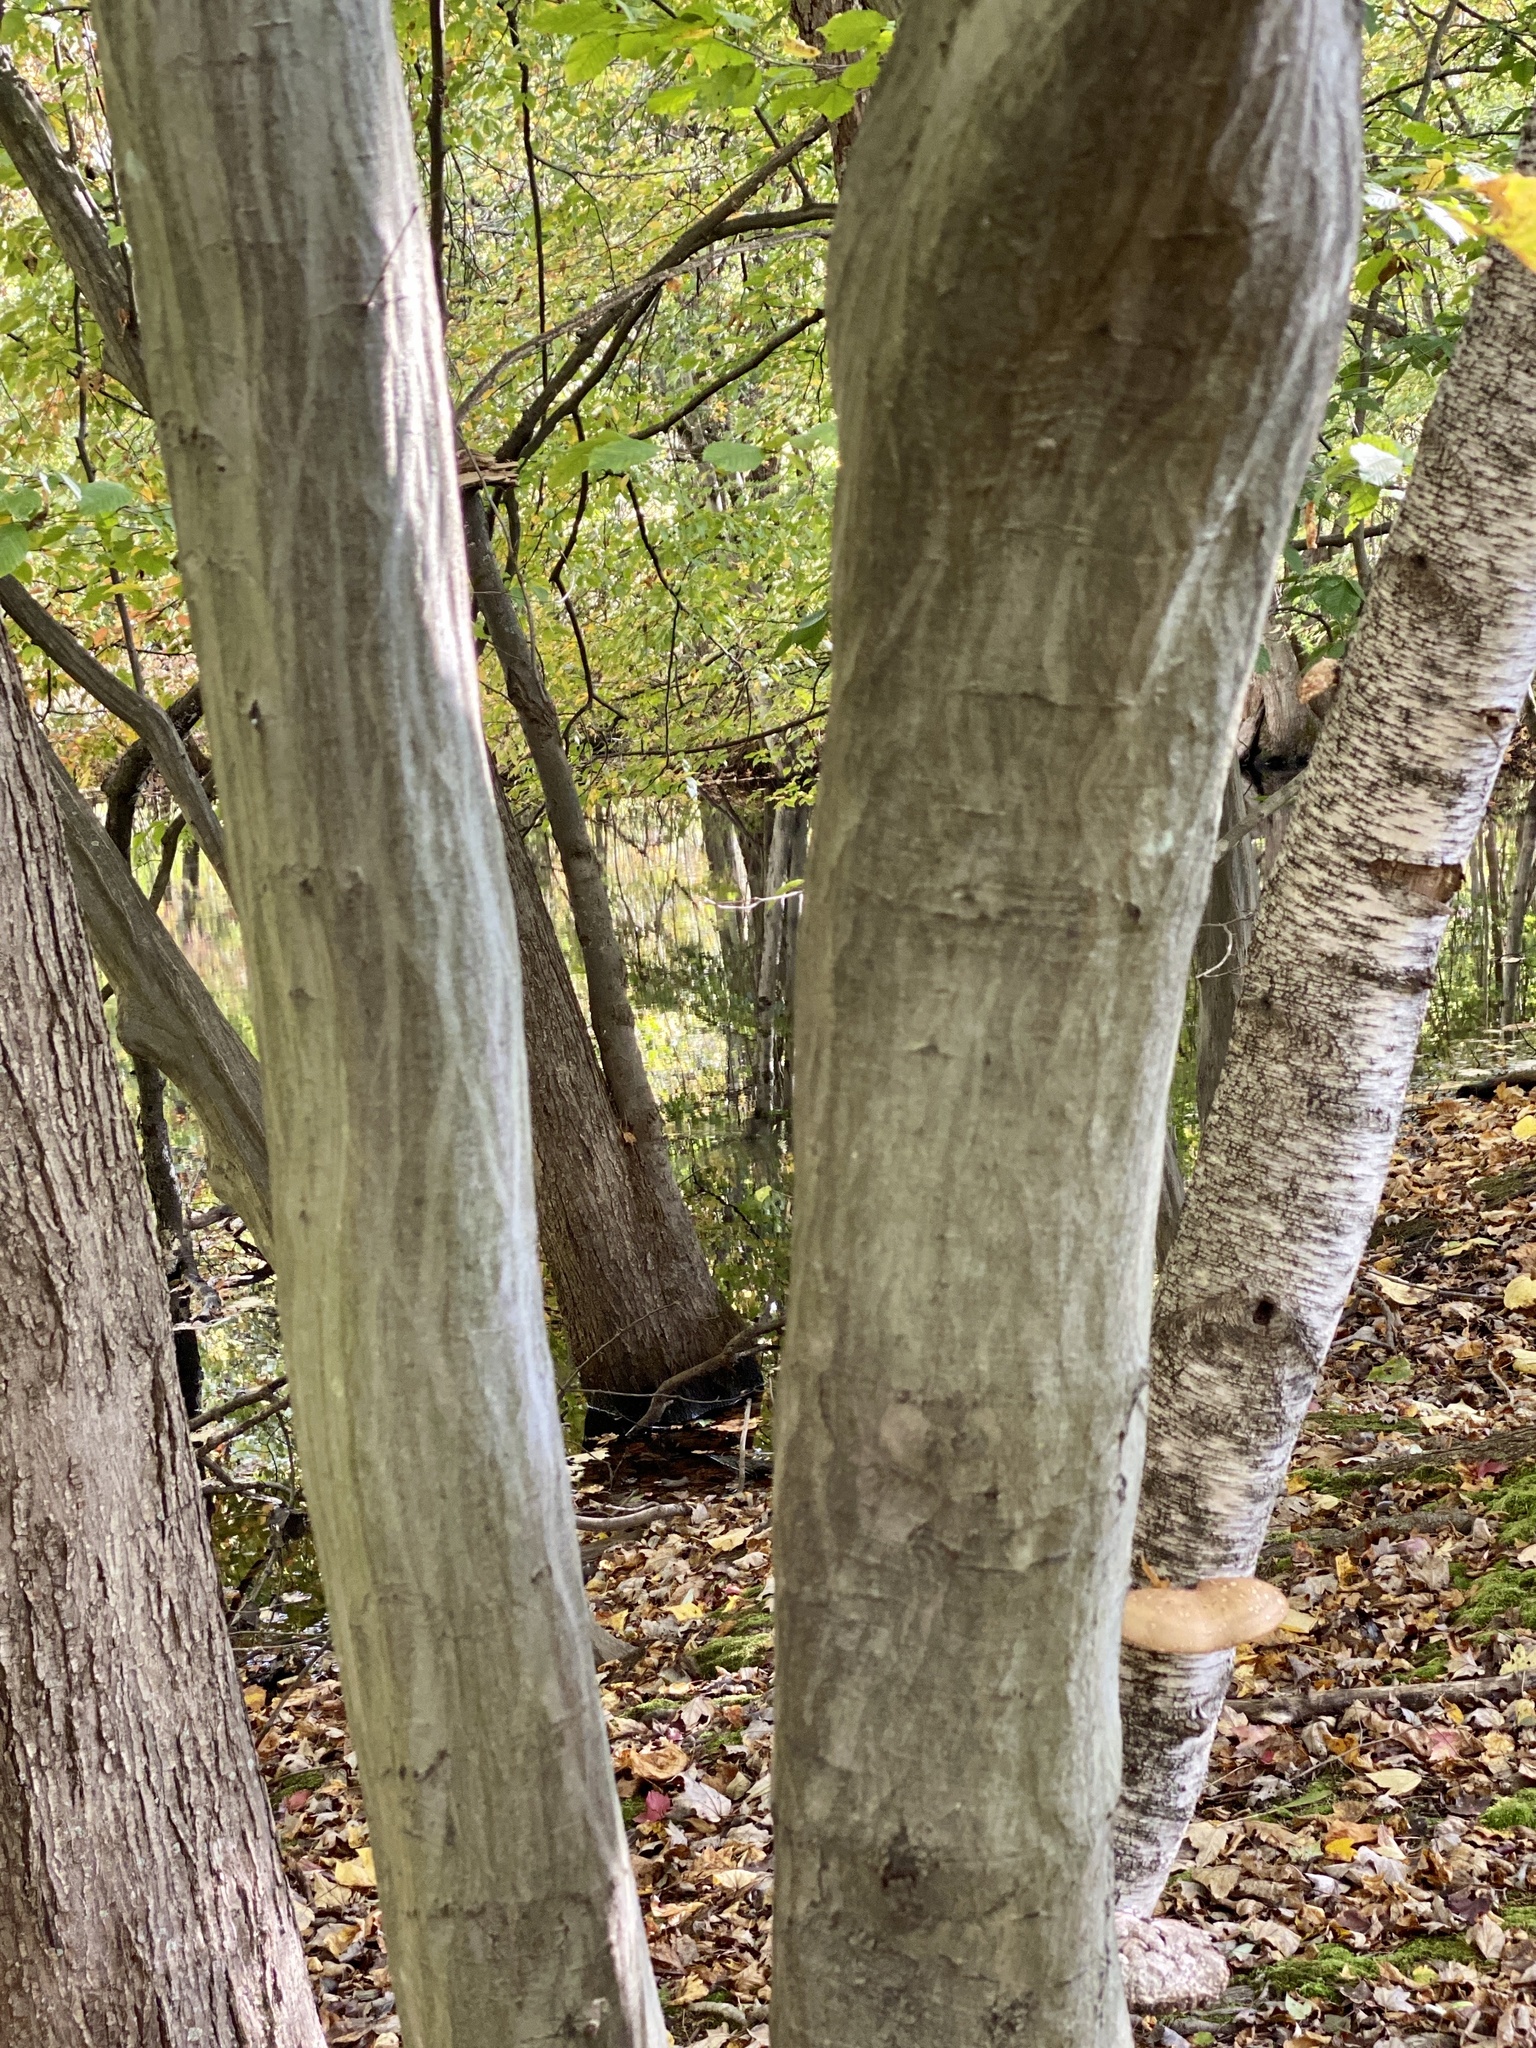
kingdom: Plantae
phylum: Tracheophyta
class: Magnoliopsida
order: Fagales
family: Betulaceae
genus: Carpinus
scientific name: Carpinus caroliniana
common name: American hornbeam
